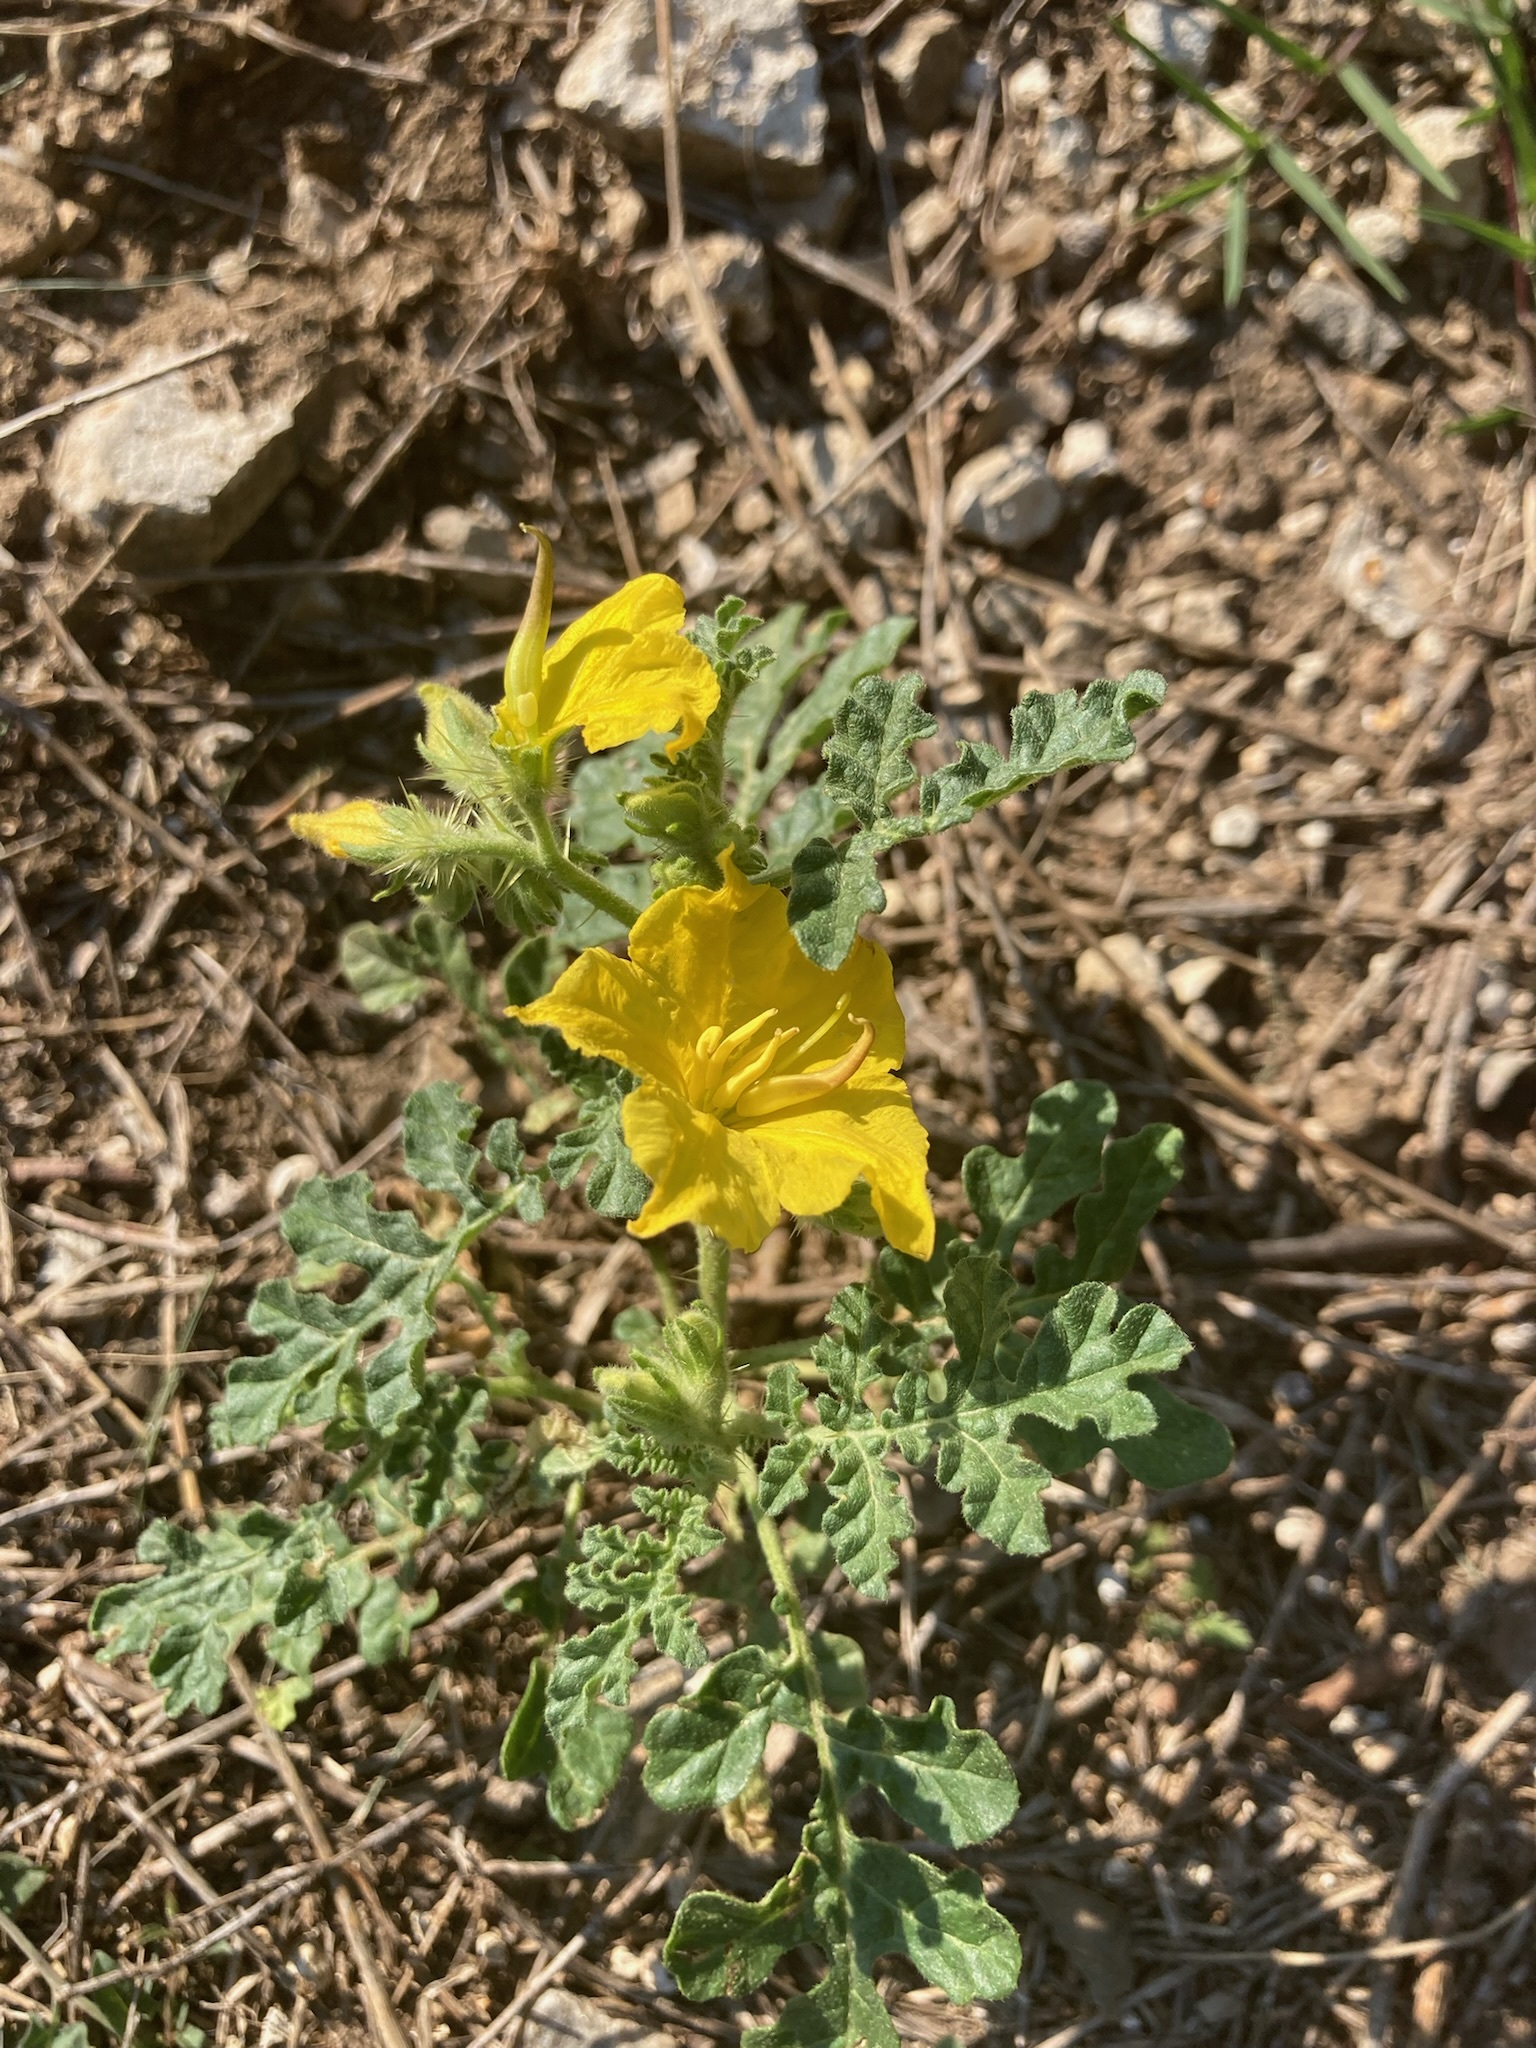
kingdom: Plantae
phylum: Tracheophyta
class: Magnoliopsida
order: Solanales
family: Solanaceae
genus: Solanum
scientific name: Solanum angustifolium
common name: Buffalobur nightshade
